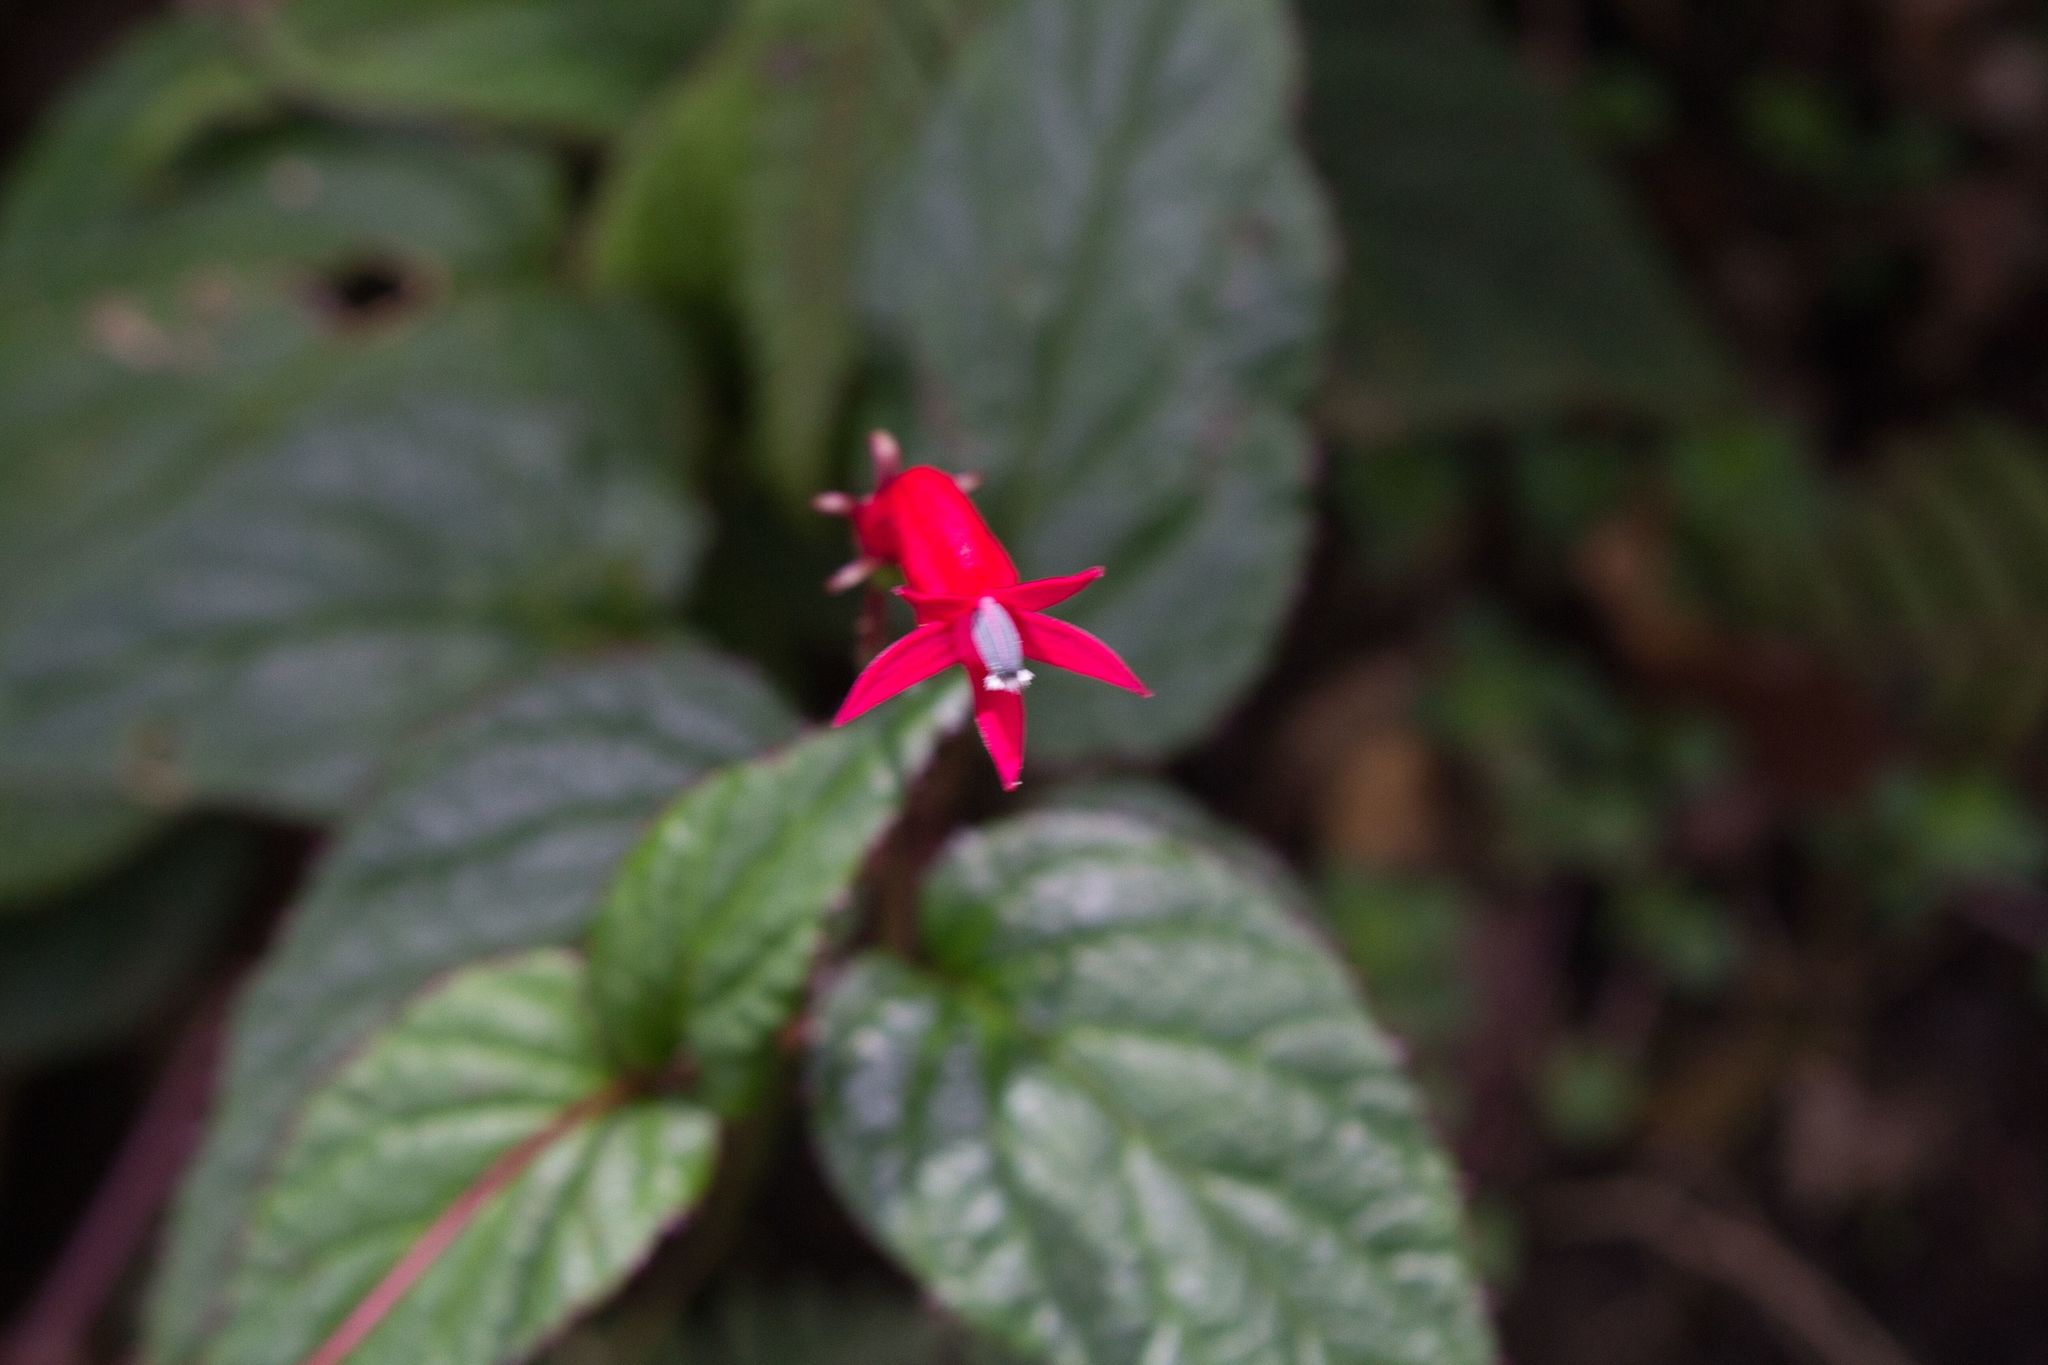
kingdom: Plantae
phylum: Tracheophyta
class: Magnoliopsida
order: Asterales
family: Campanulaceae
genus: Centropogon
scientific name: Centropogon costaricae
